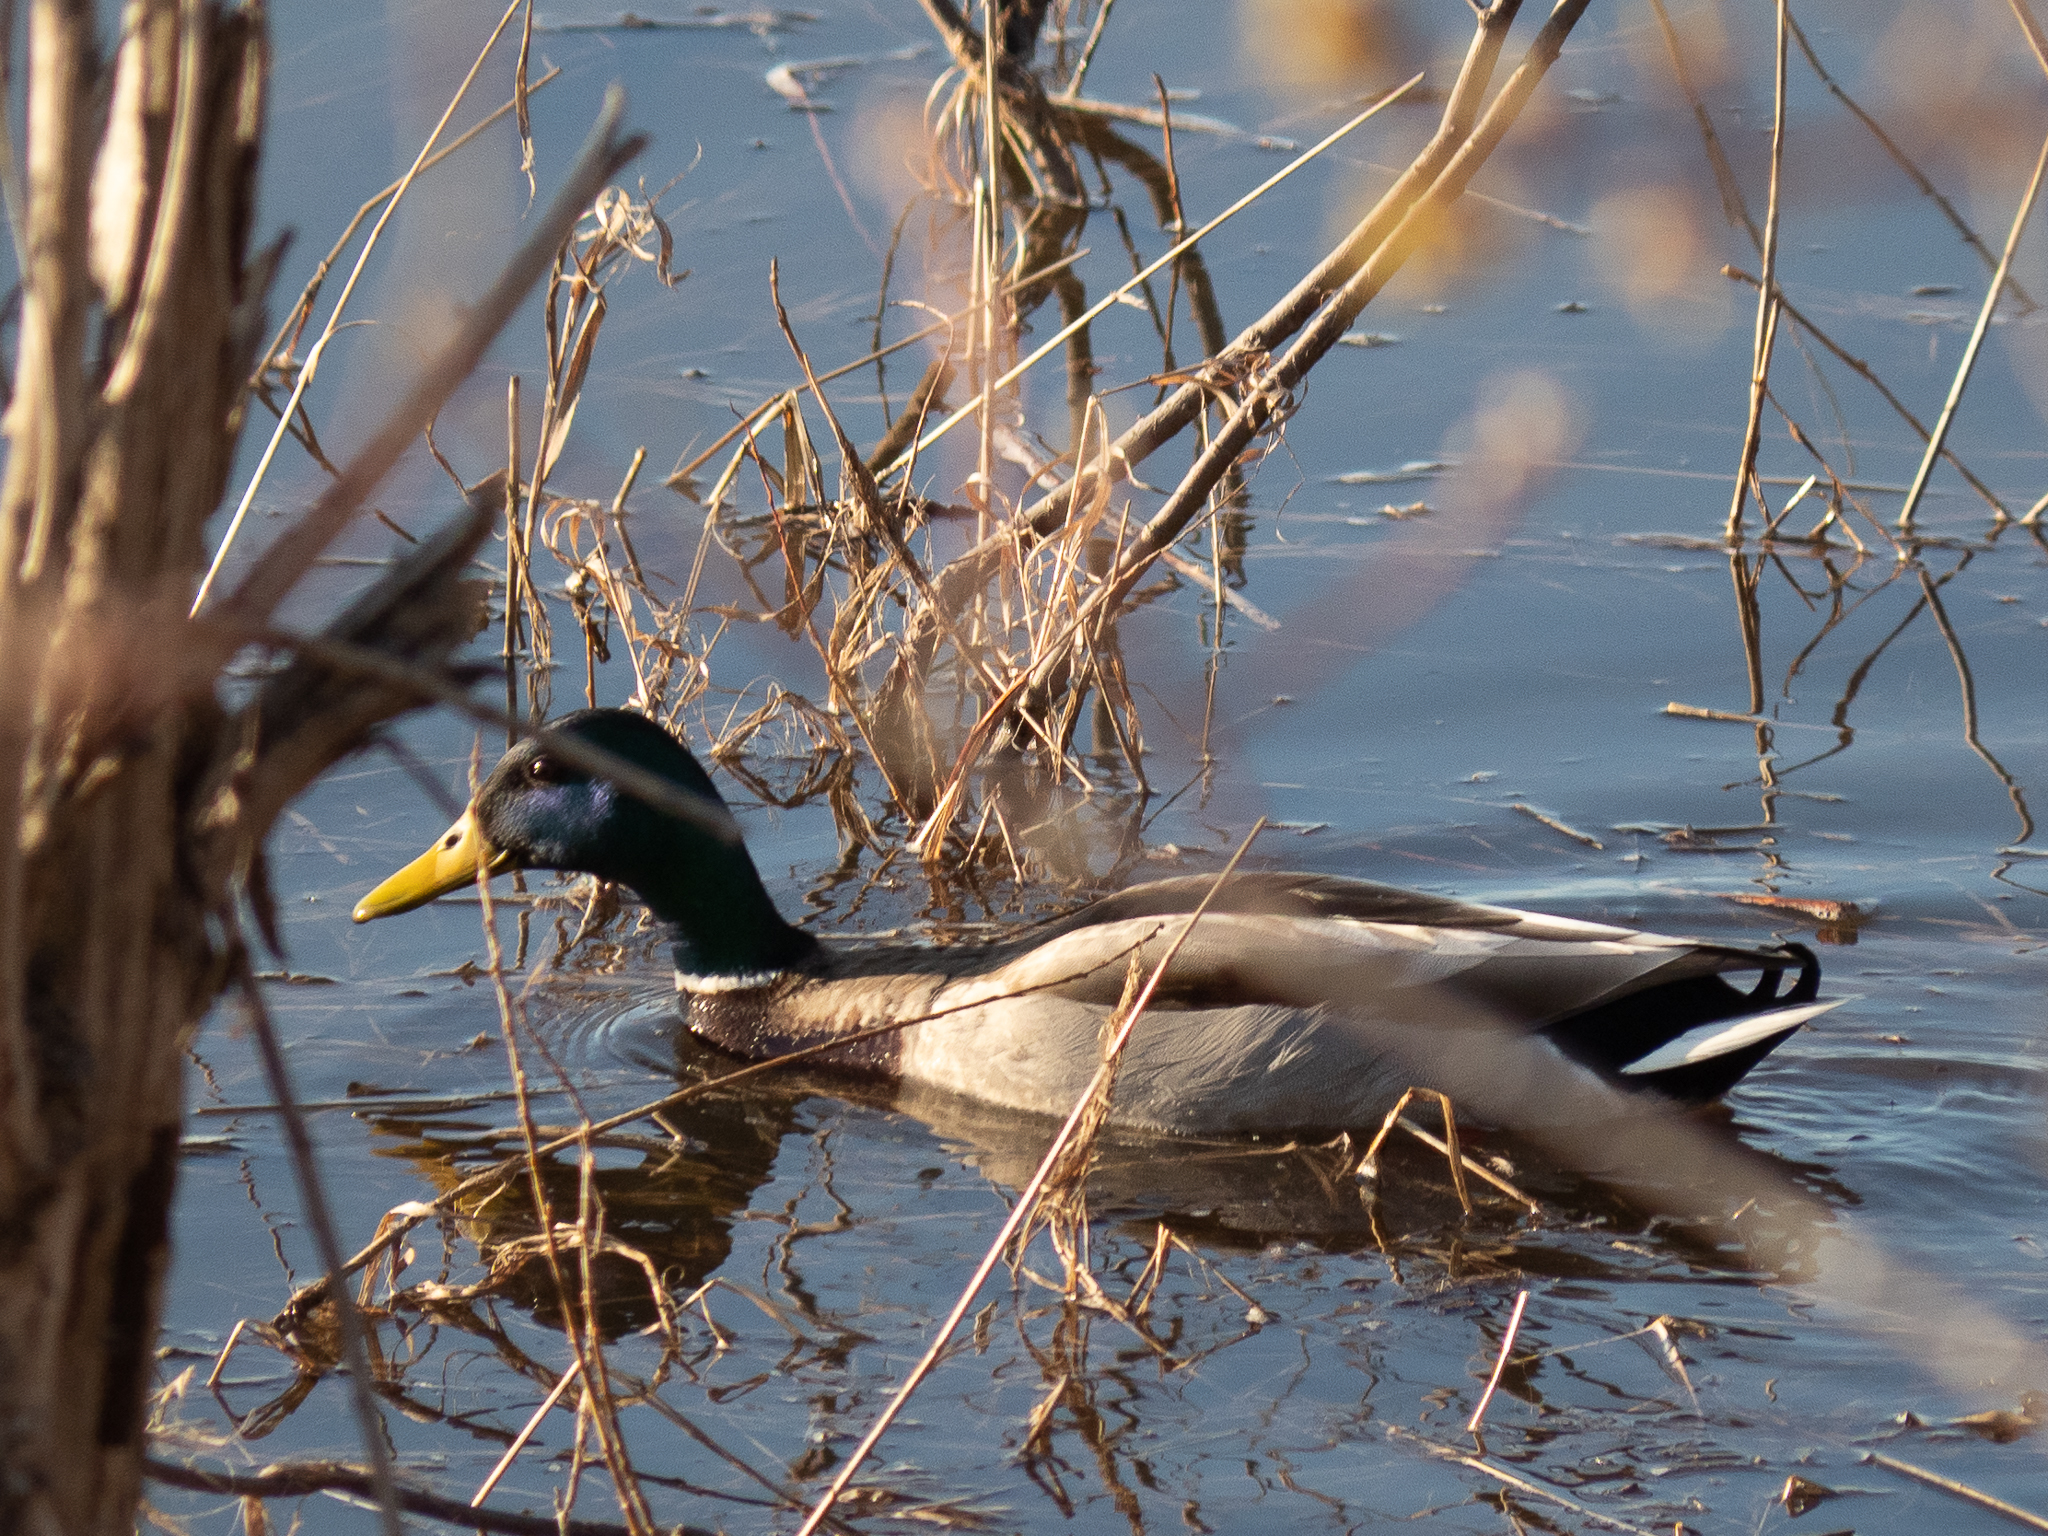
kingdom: Animalia
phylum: Chordata
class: Aves
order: Anseriformes
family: Anatidae
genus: Anas
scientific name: Anas platyrhynchos
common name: Mallard
